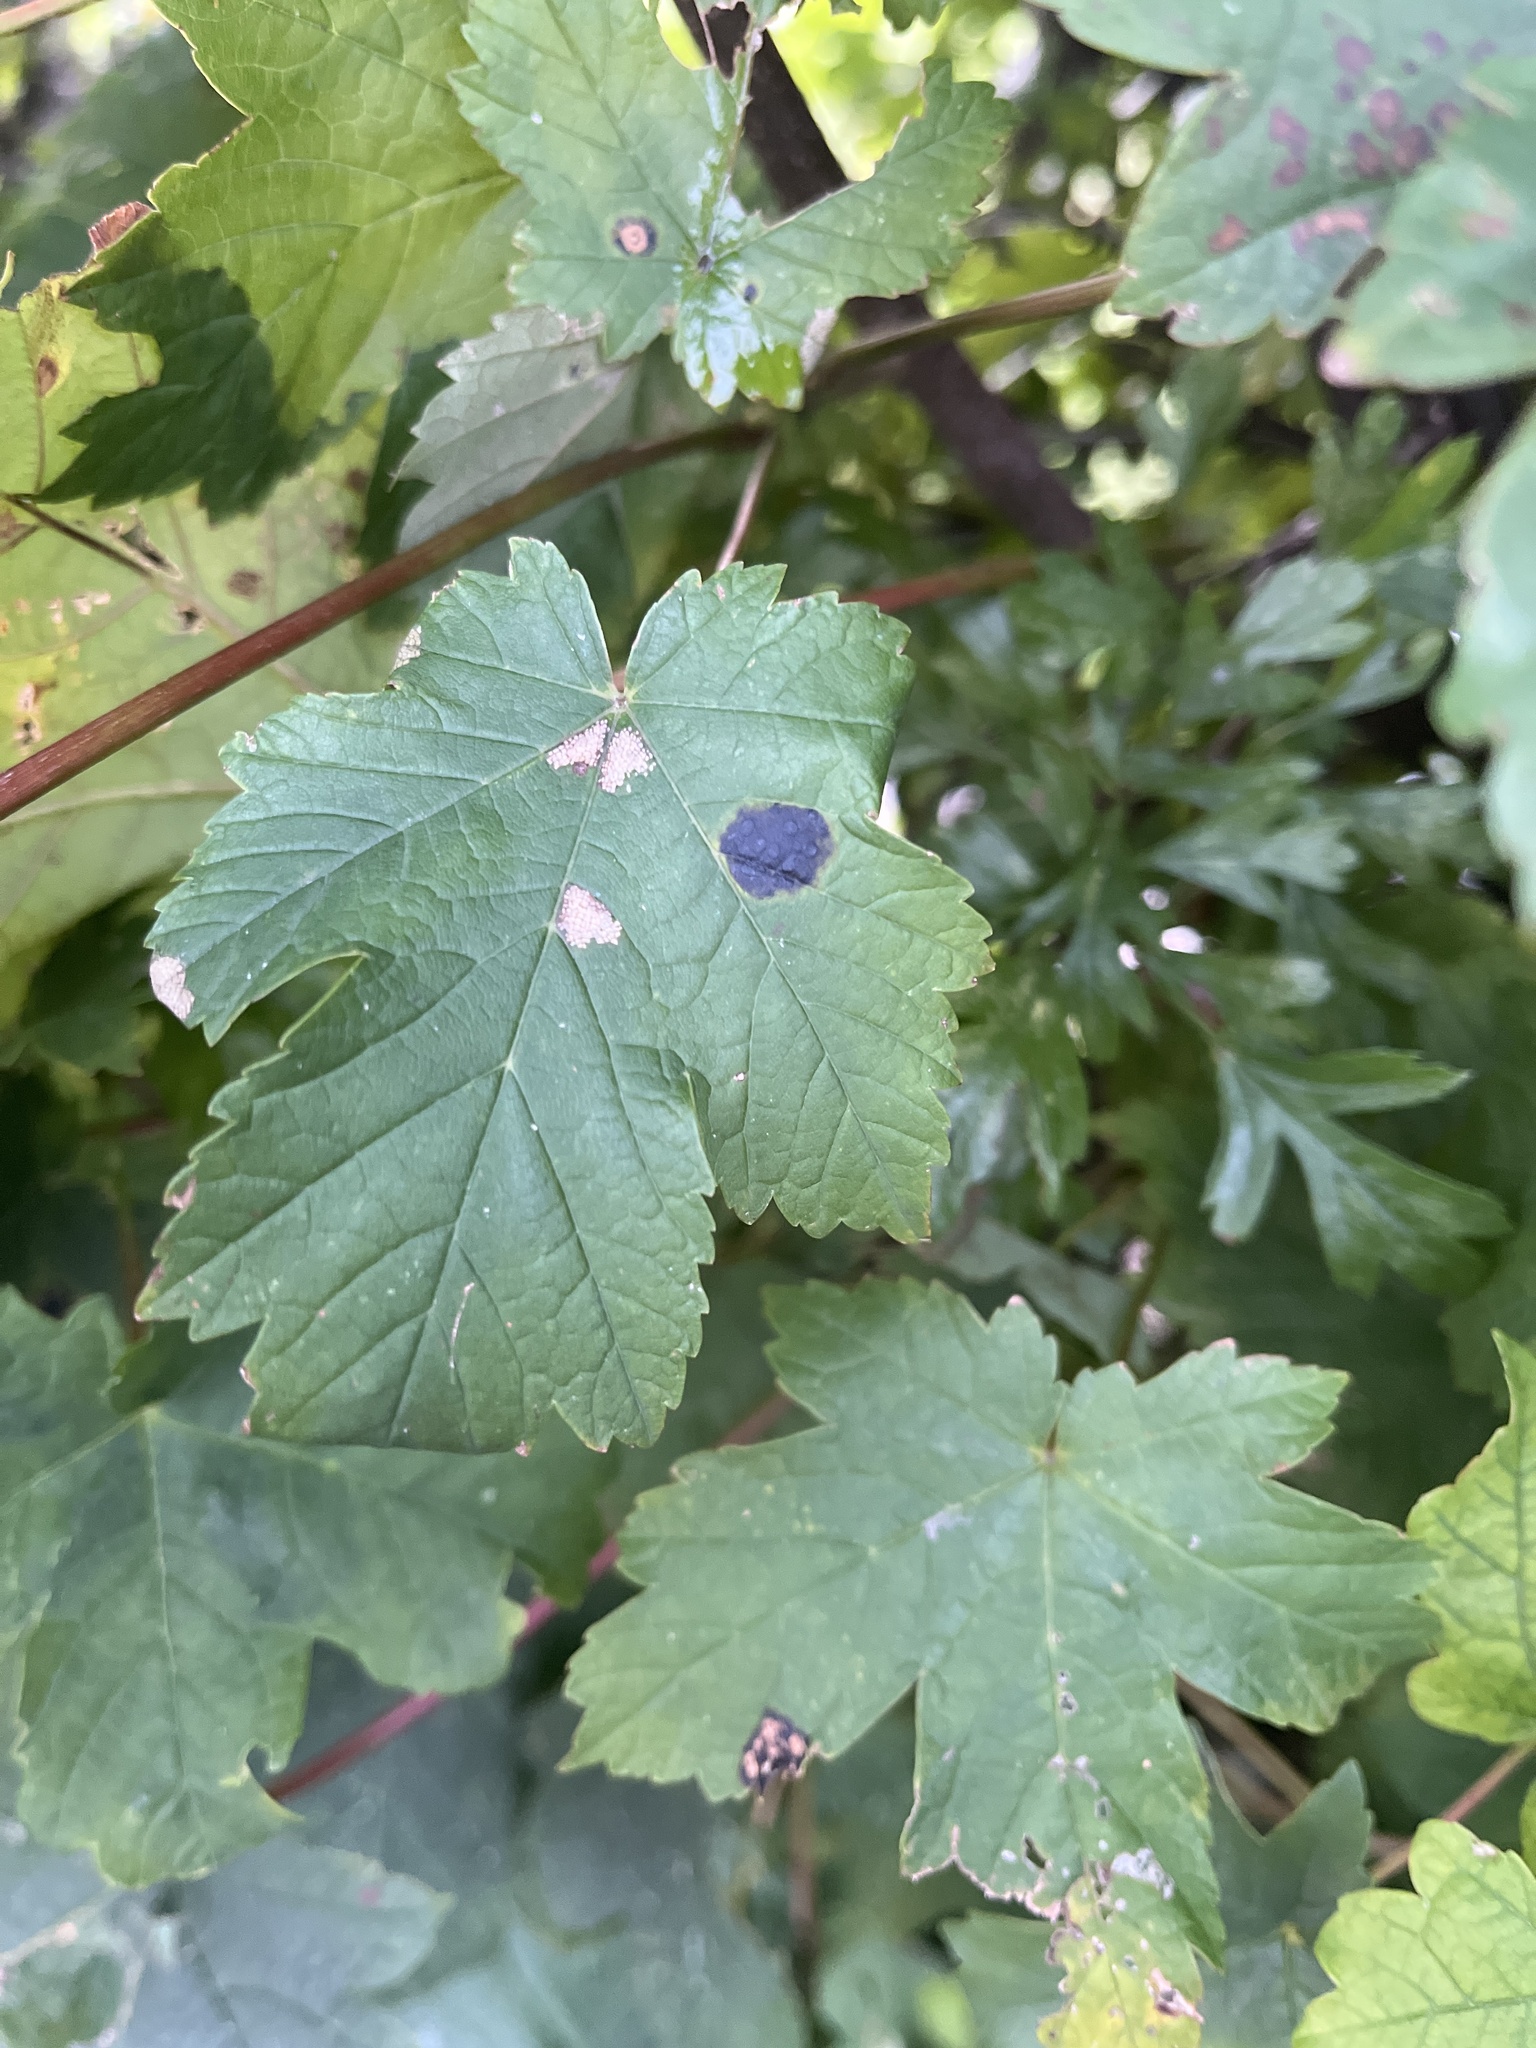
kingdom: Fungi
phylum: Ascomycota
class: Leotiomycetes
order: Rhytismatales
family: Rhytismataceae
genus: Rhytisma
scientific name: Rhytisma acerinum
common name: European tar spot
